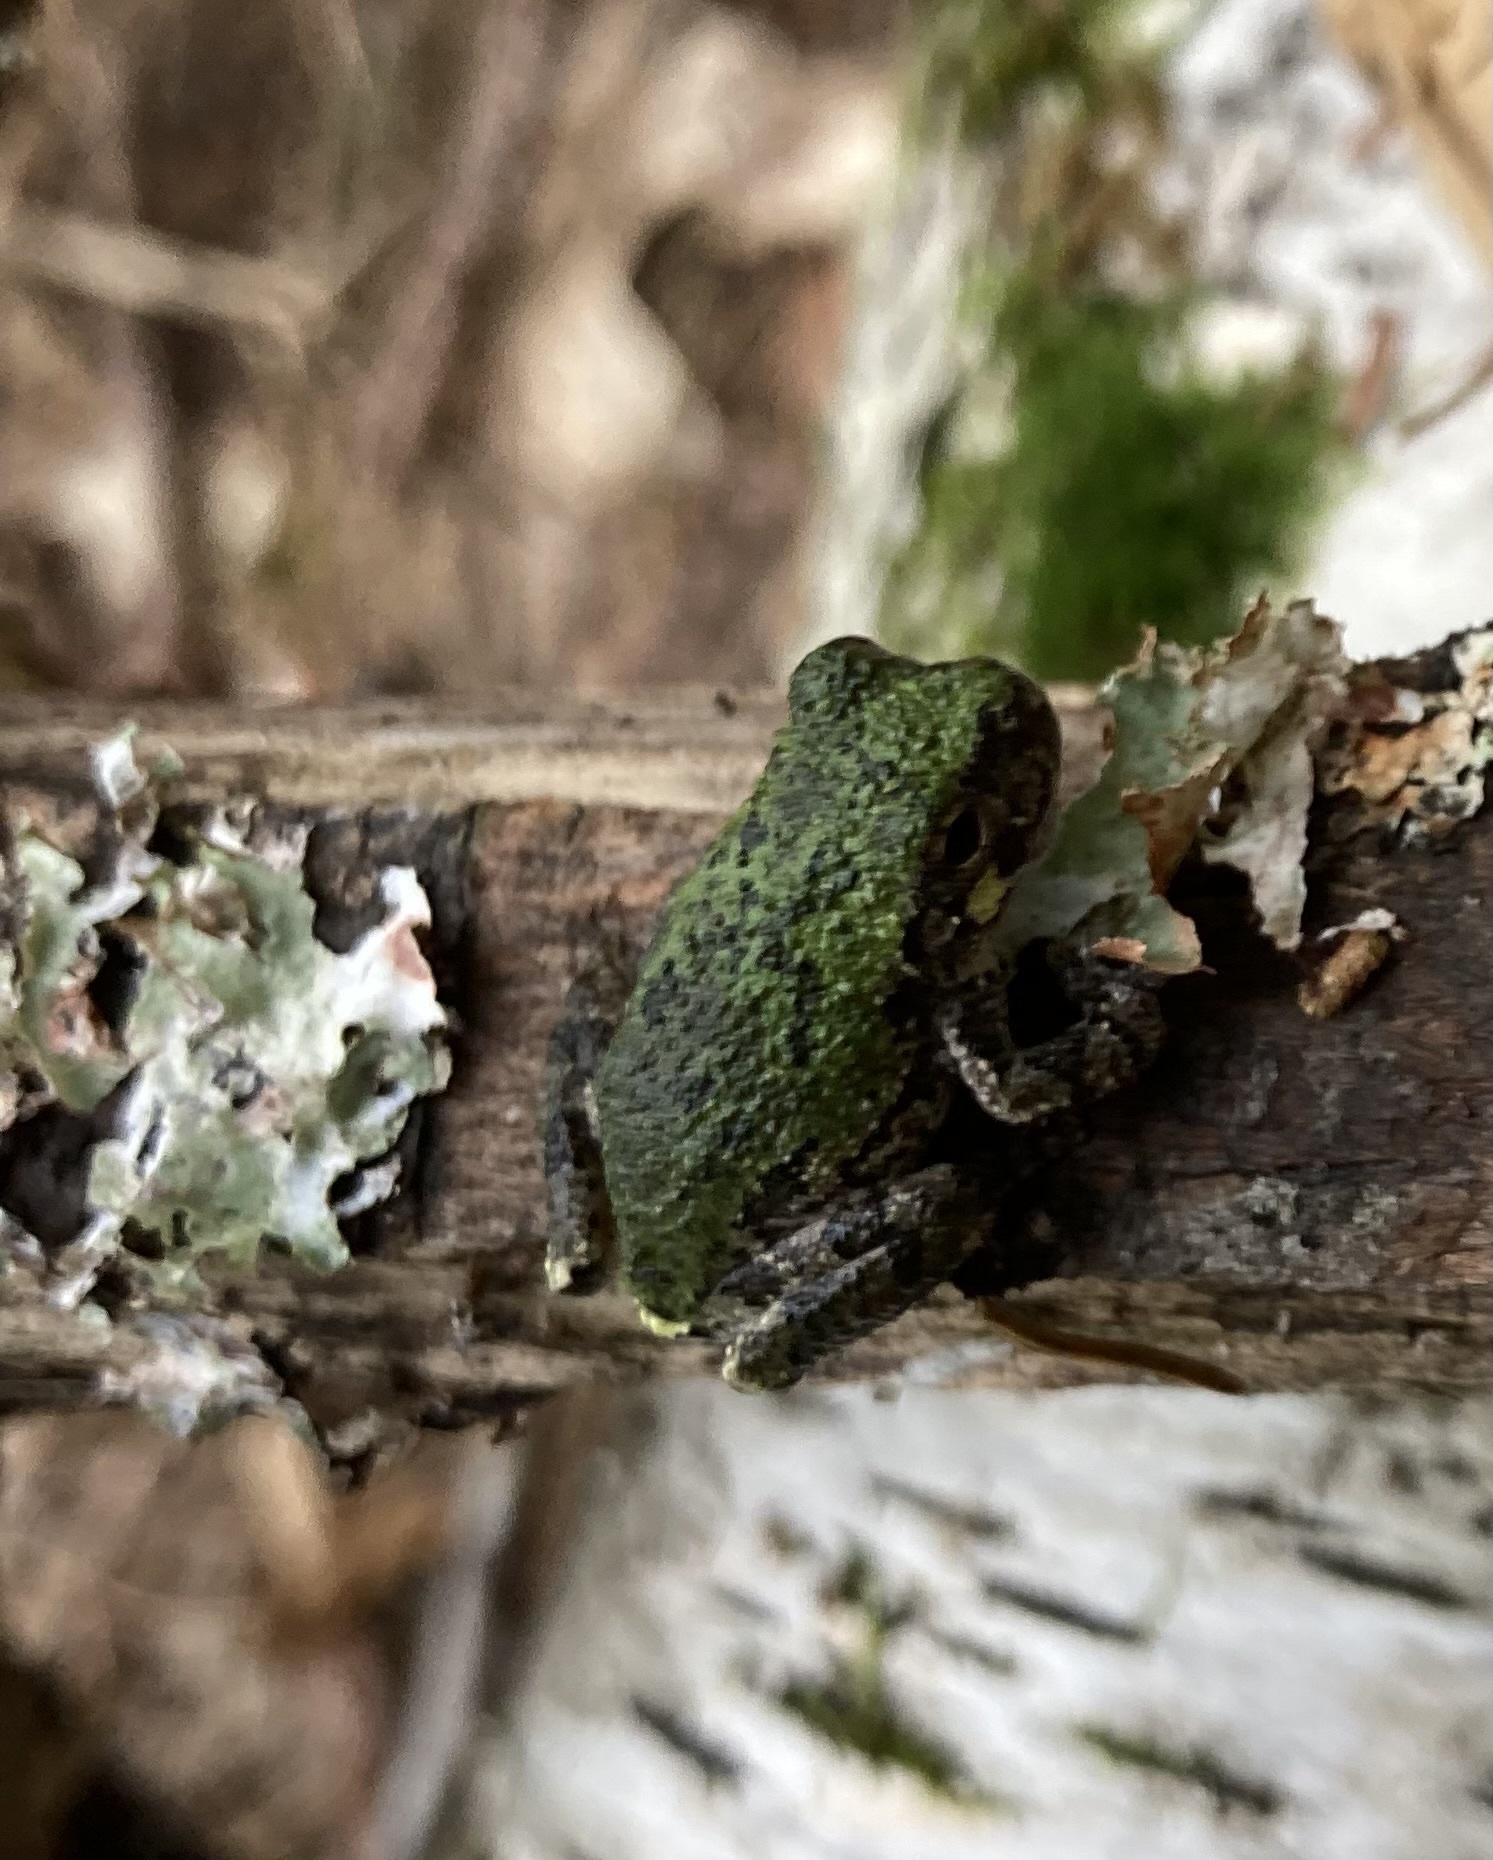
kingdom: Animalia
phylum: Chordata
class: Amphibia
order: Anura
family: Hylidae
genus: Dryophytes
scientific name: Dryophytes versicolor
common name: Gray treefrog
